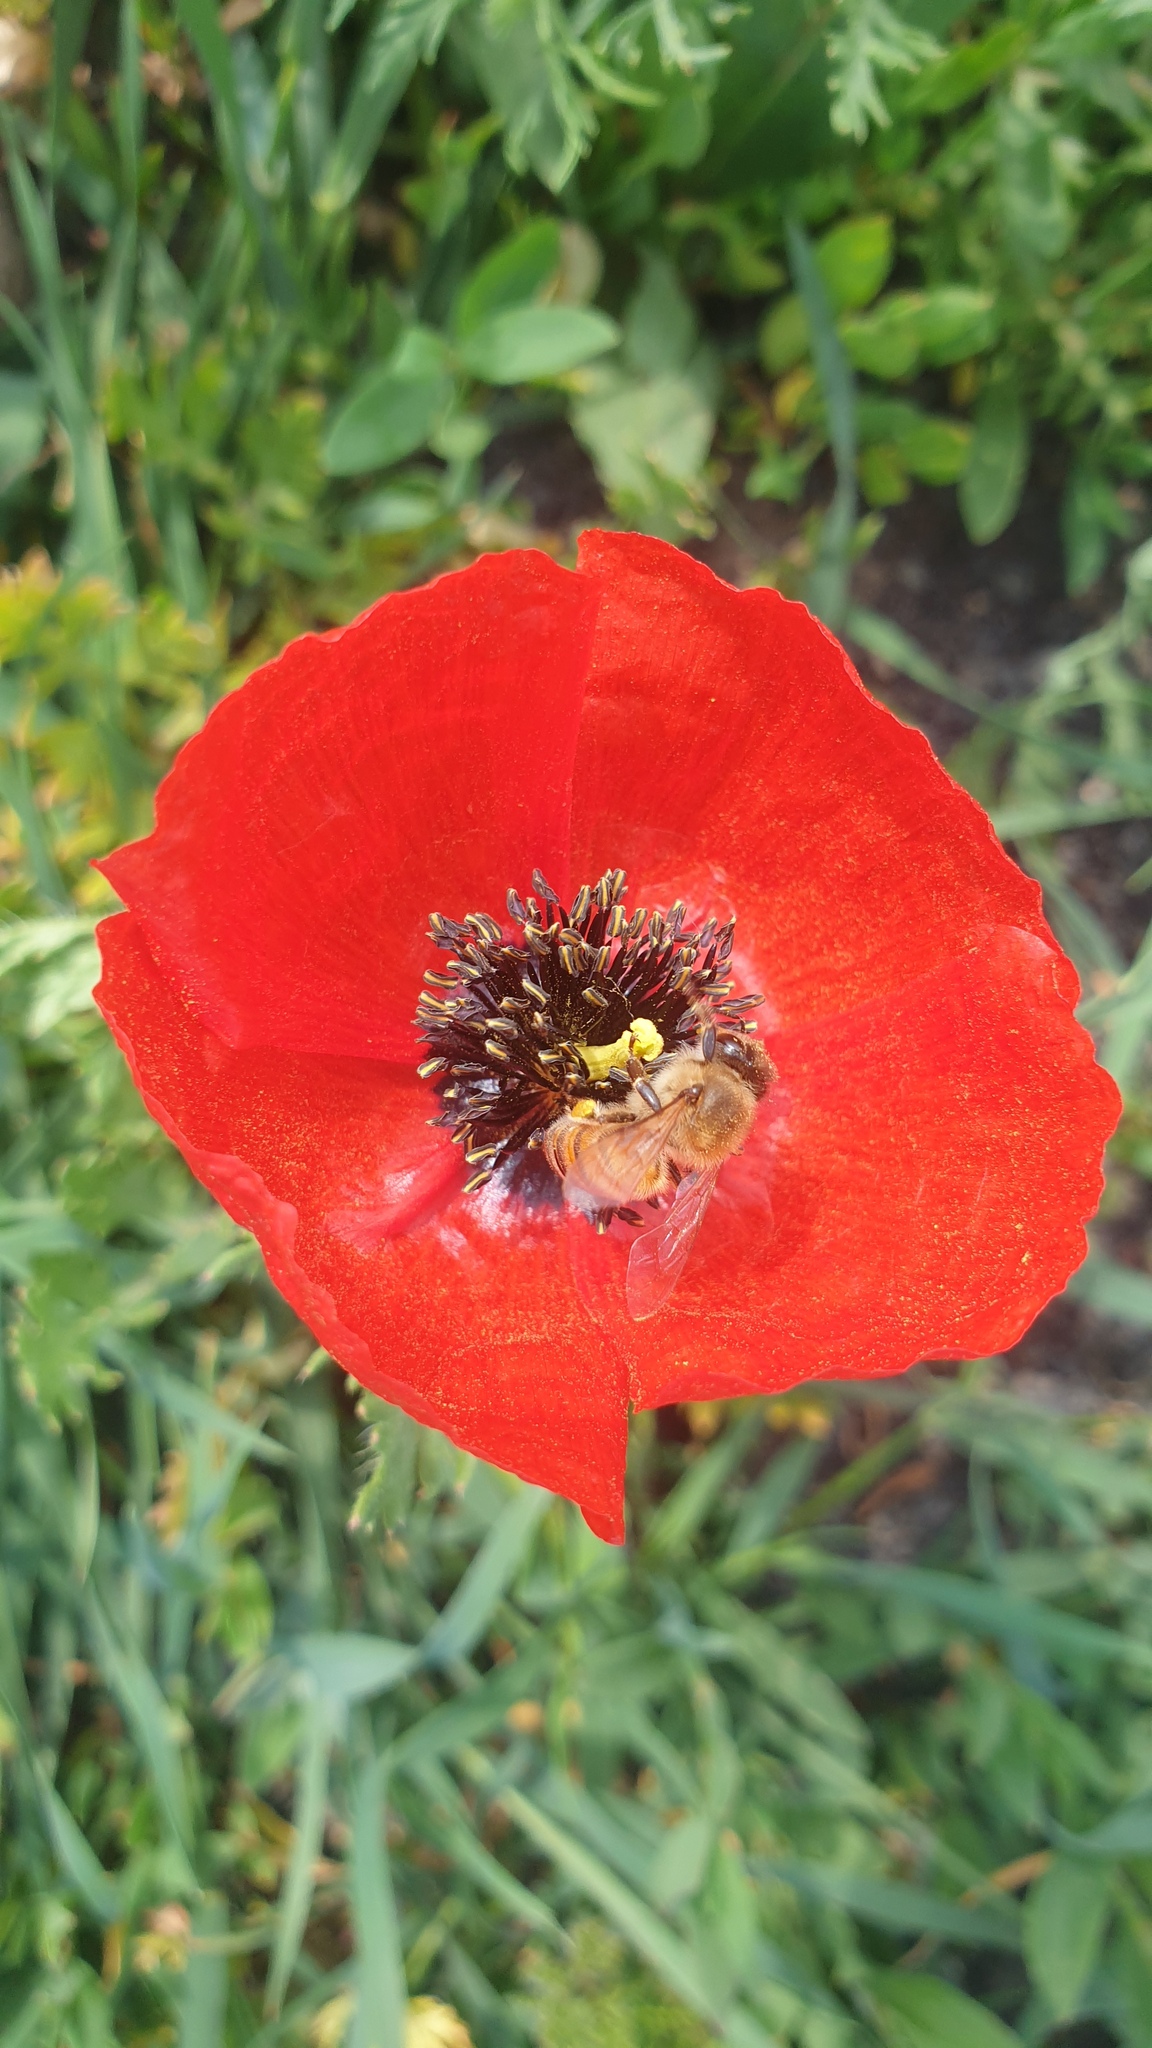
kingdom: Plantae
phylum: Tracheophyta
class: Magnoliopsida
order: Ranunculales
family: Papaveraceae
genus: Roemeria
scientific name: Roemeria refracta
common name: Spotted asian poppy
